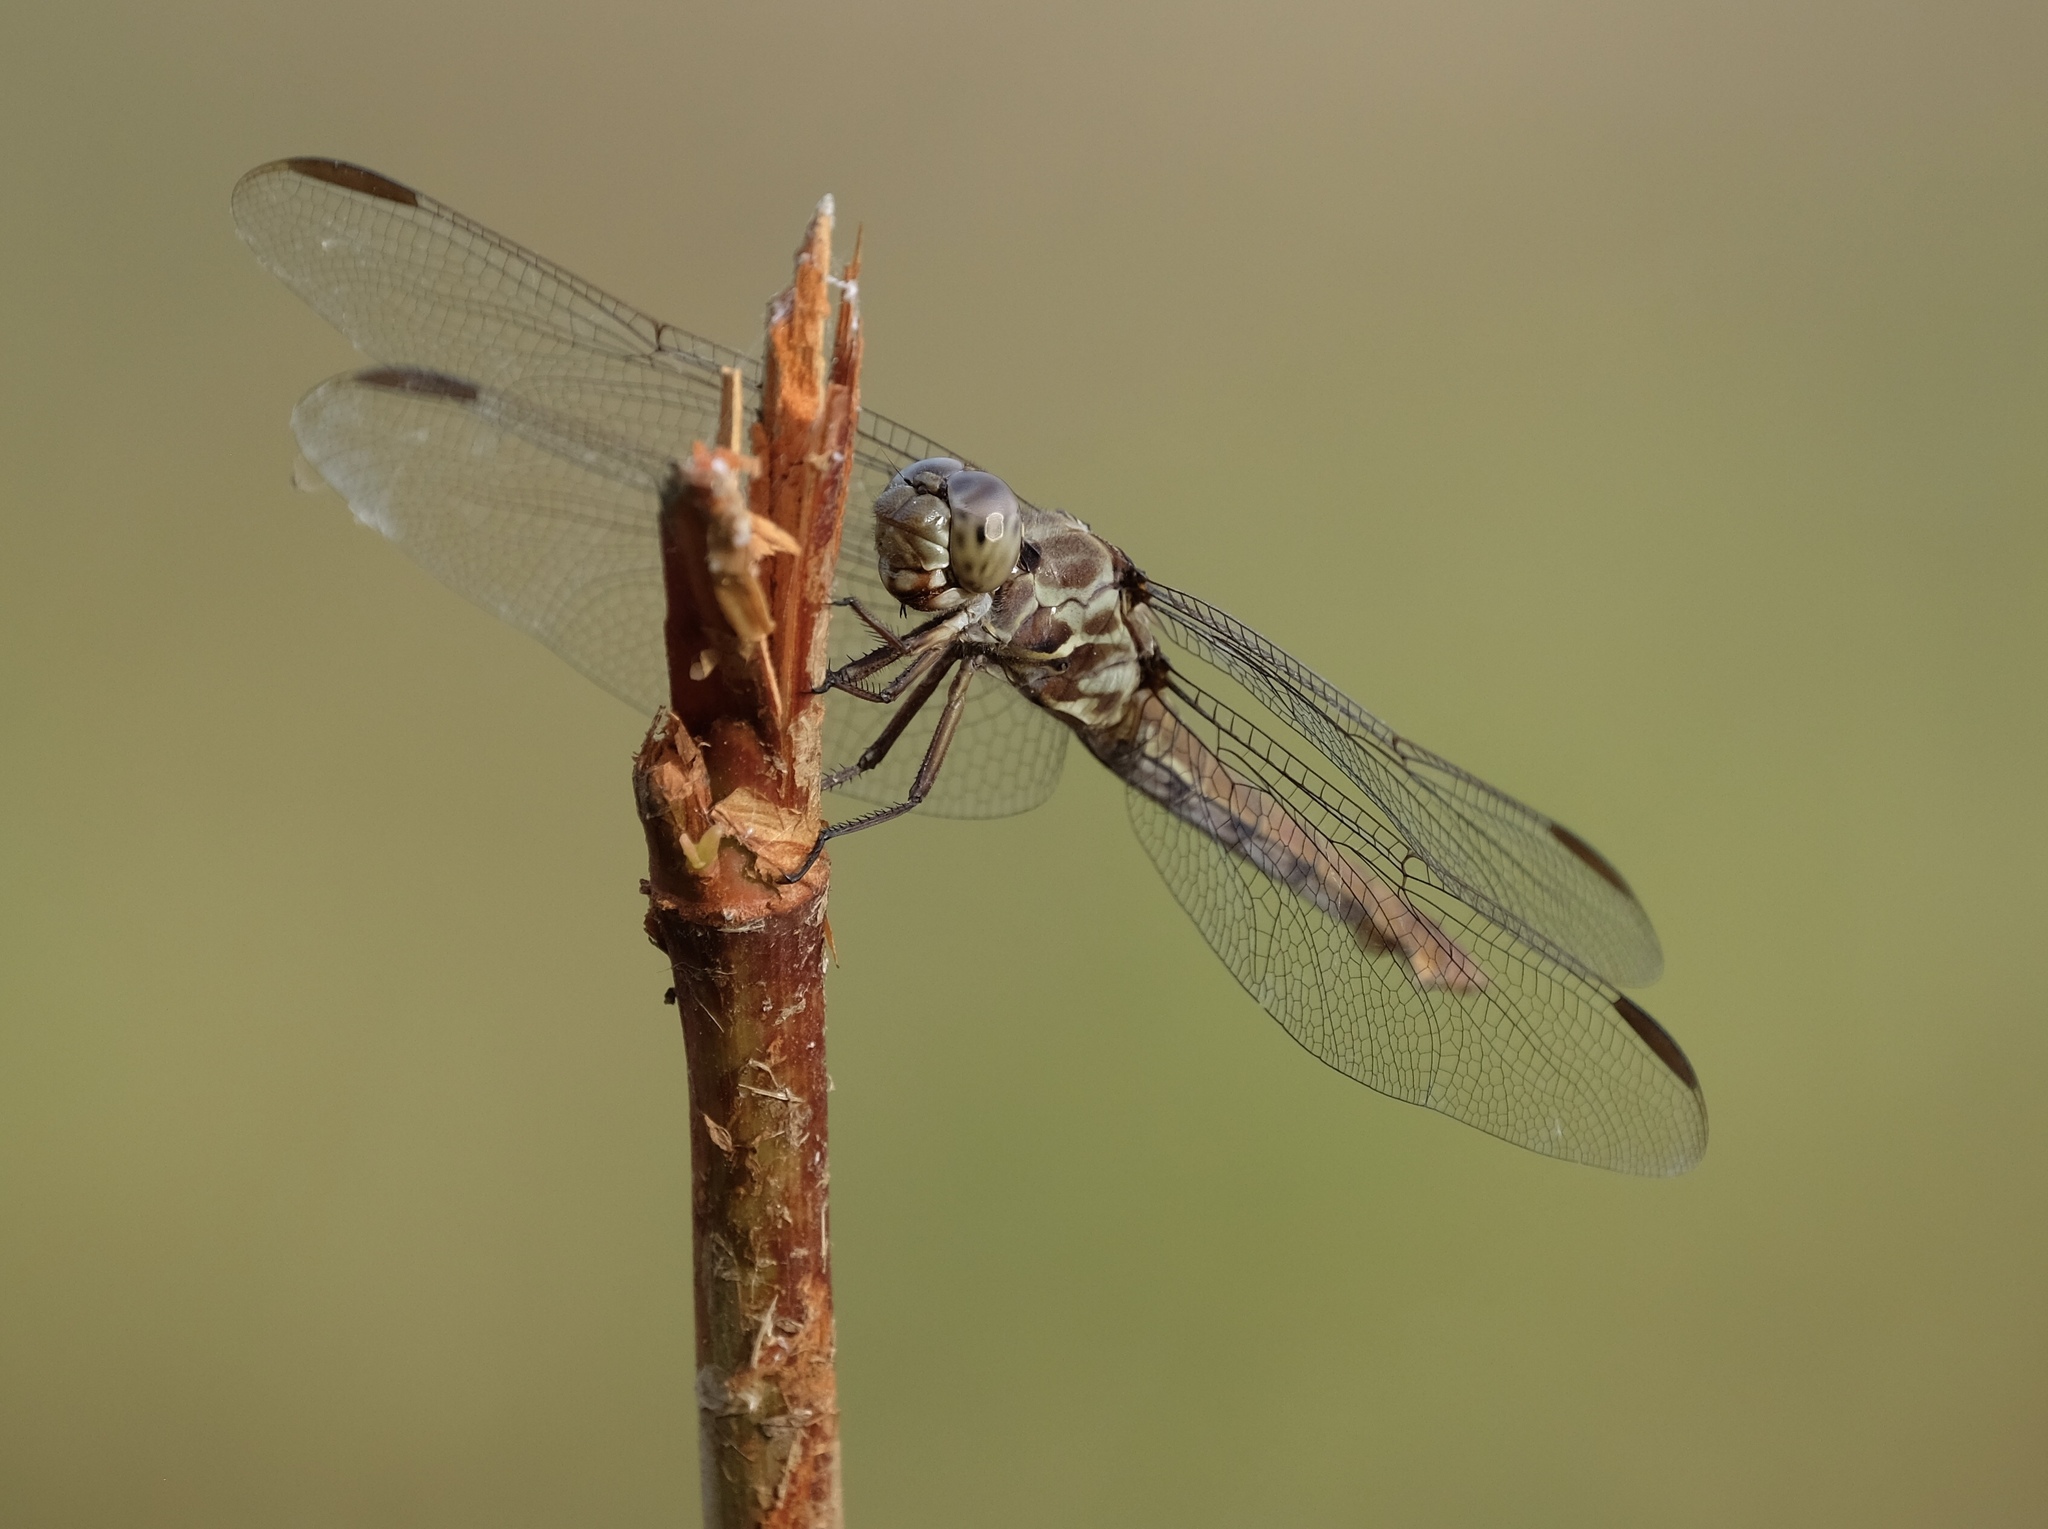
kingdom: Animalia
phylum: Arthropoda
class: Insecta
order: Odonata
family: Libellulidae
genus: Orthemis
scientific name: Orthemis ferruginea
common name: Roseate skimmer
